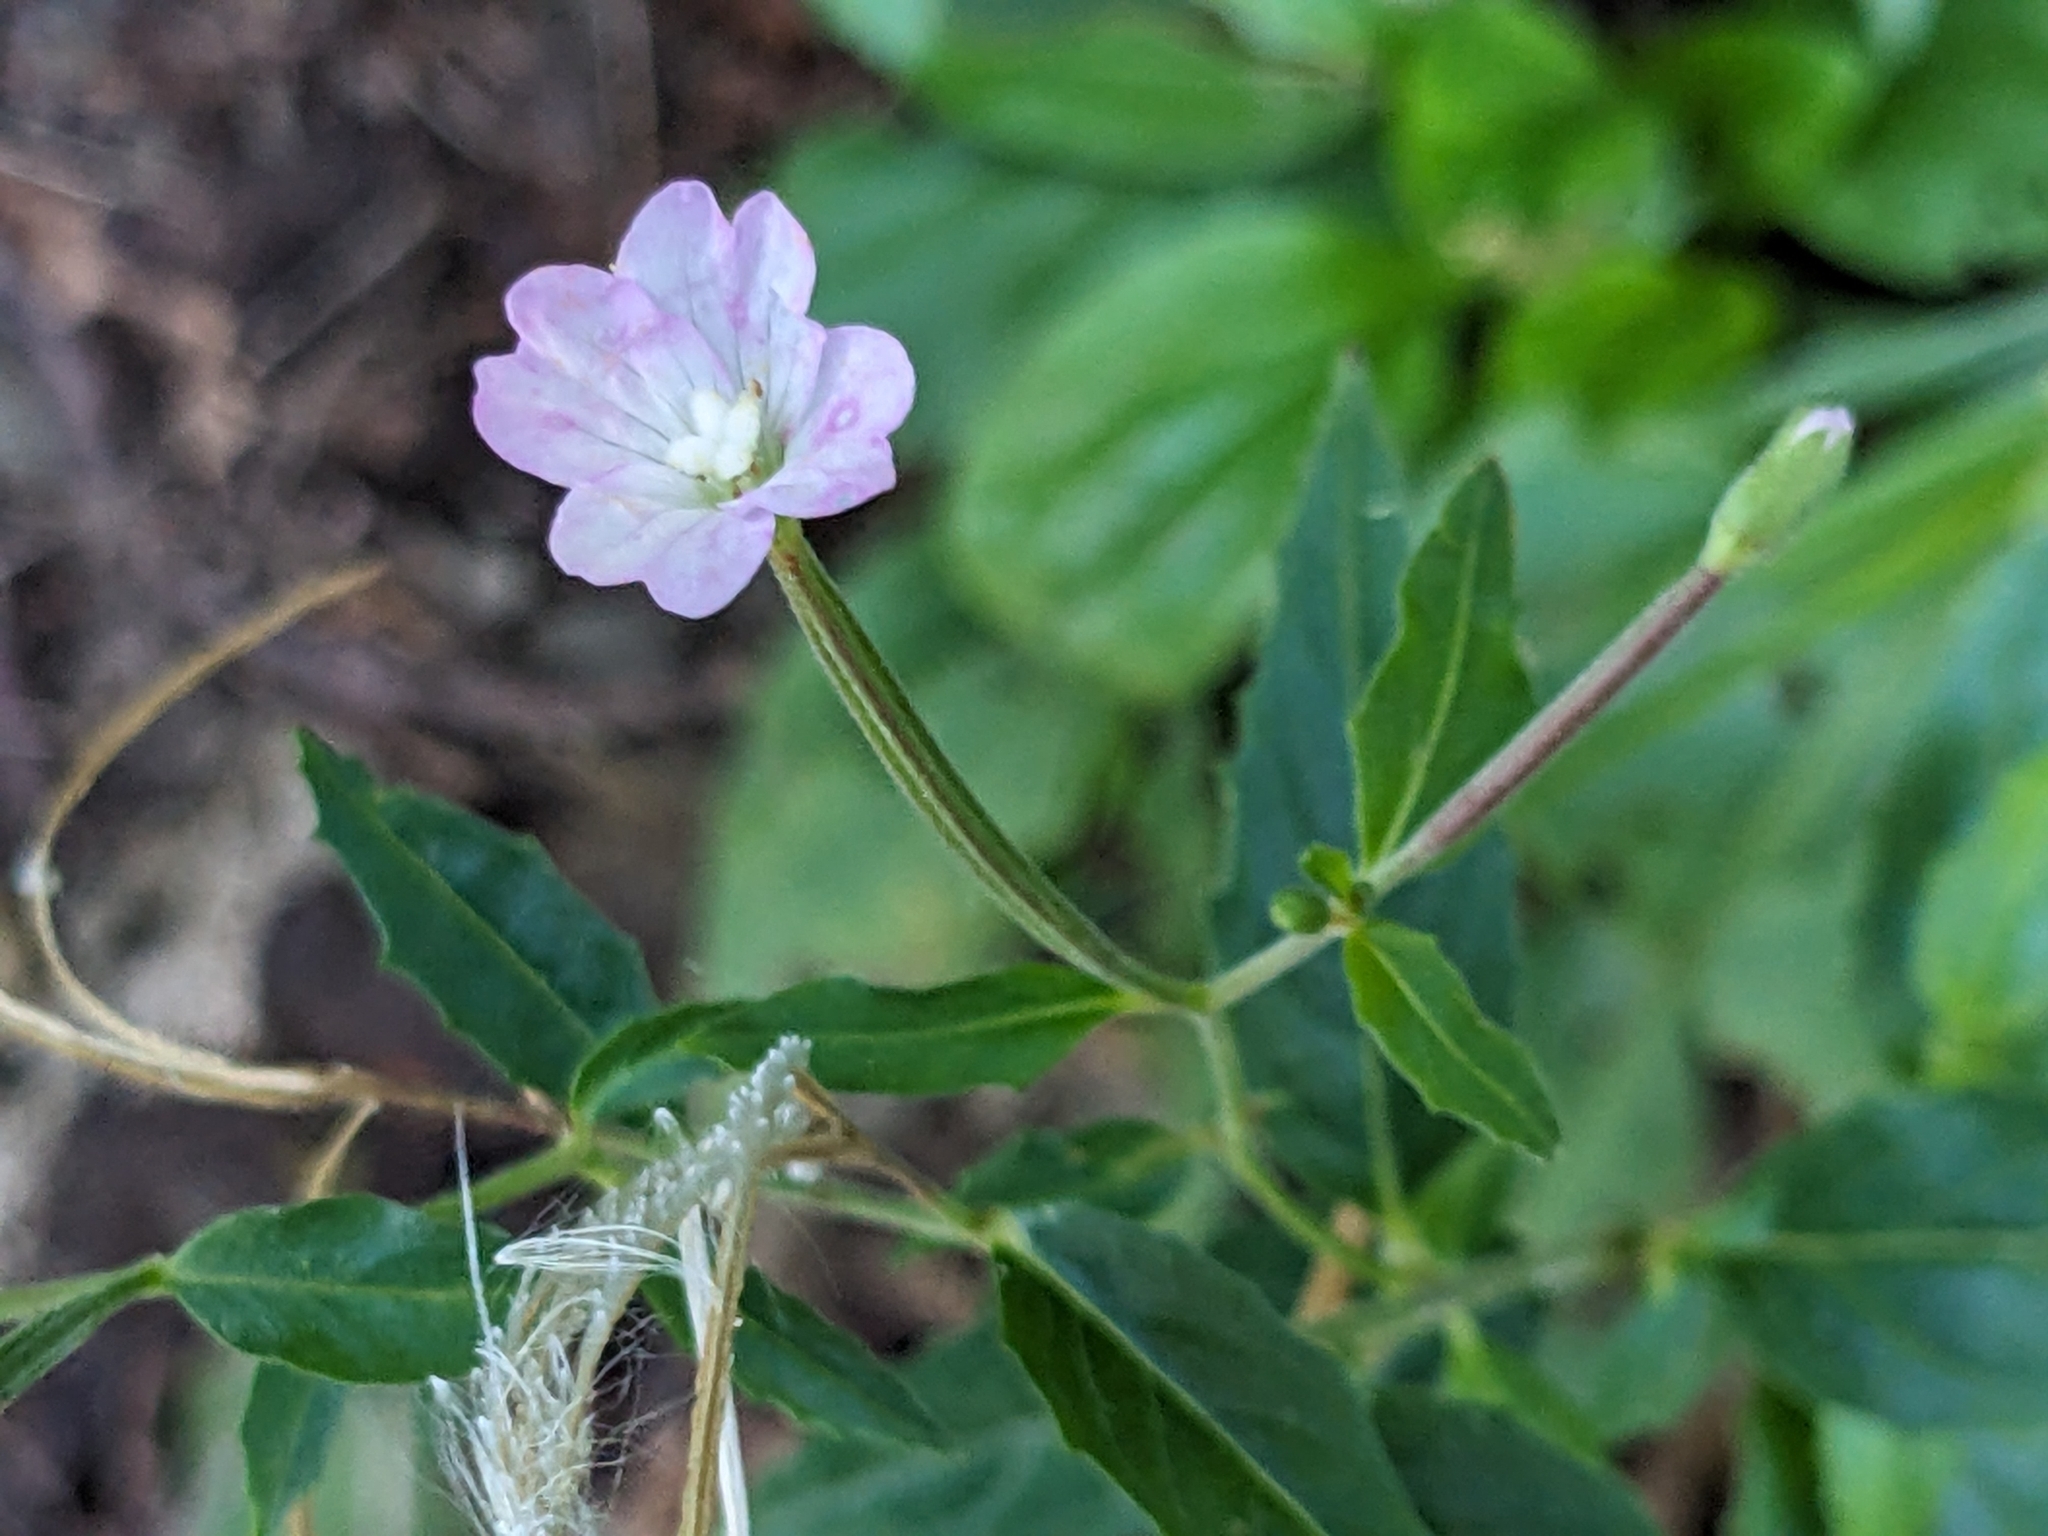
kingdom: Plantae
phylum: Tracheophyta
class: Magnoliopsida
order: Myrtales
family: Onagraceae
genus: Epilobium
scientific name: Epilobium montanum
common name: Broad-leaved willowherb
